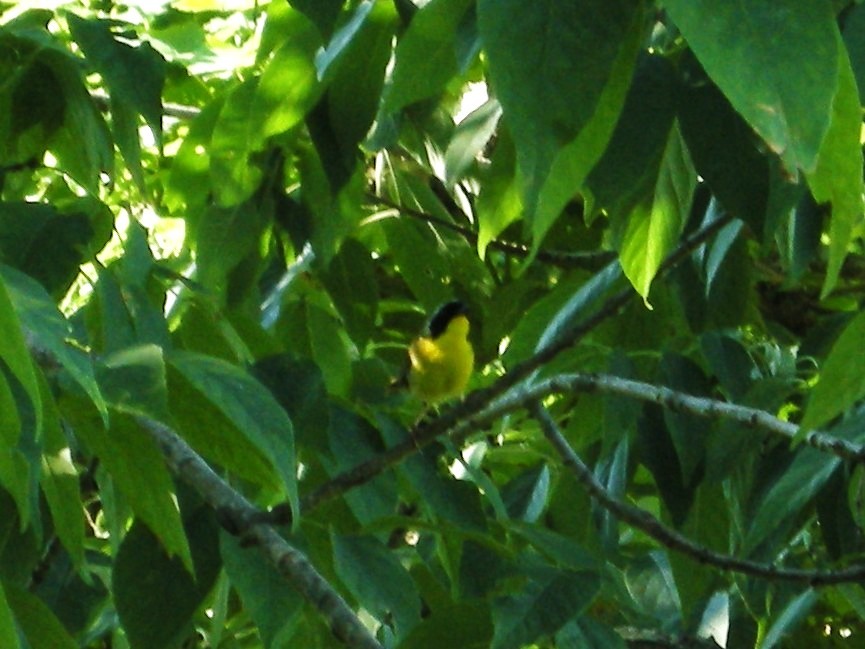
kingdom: Animalia
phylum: Chordata
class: Aves
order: Passeriformes
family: Parulidae
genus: Geothlypis
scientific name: Geothlypis trichas
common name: Common yellowthroat
